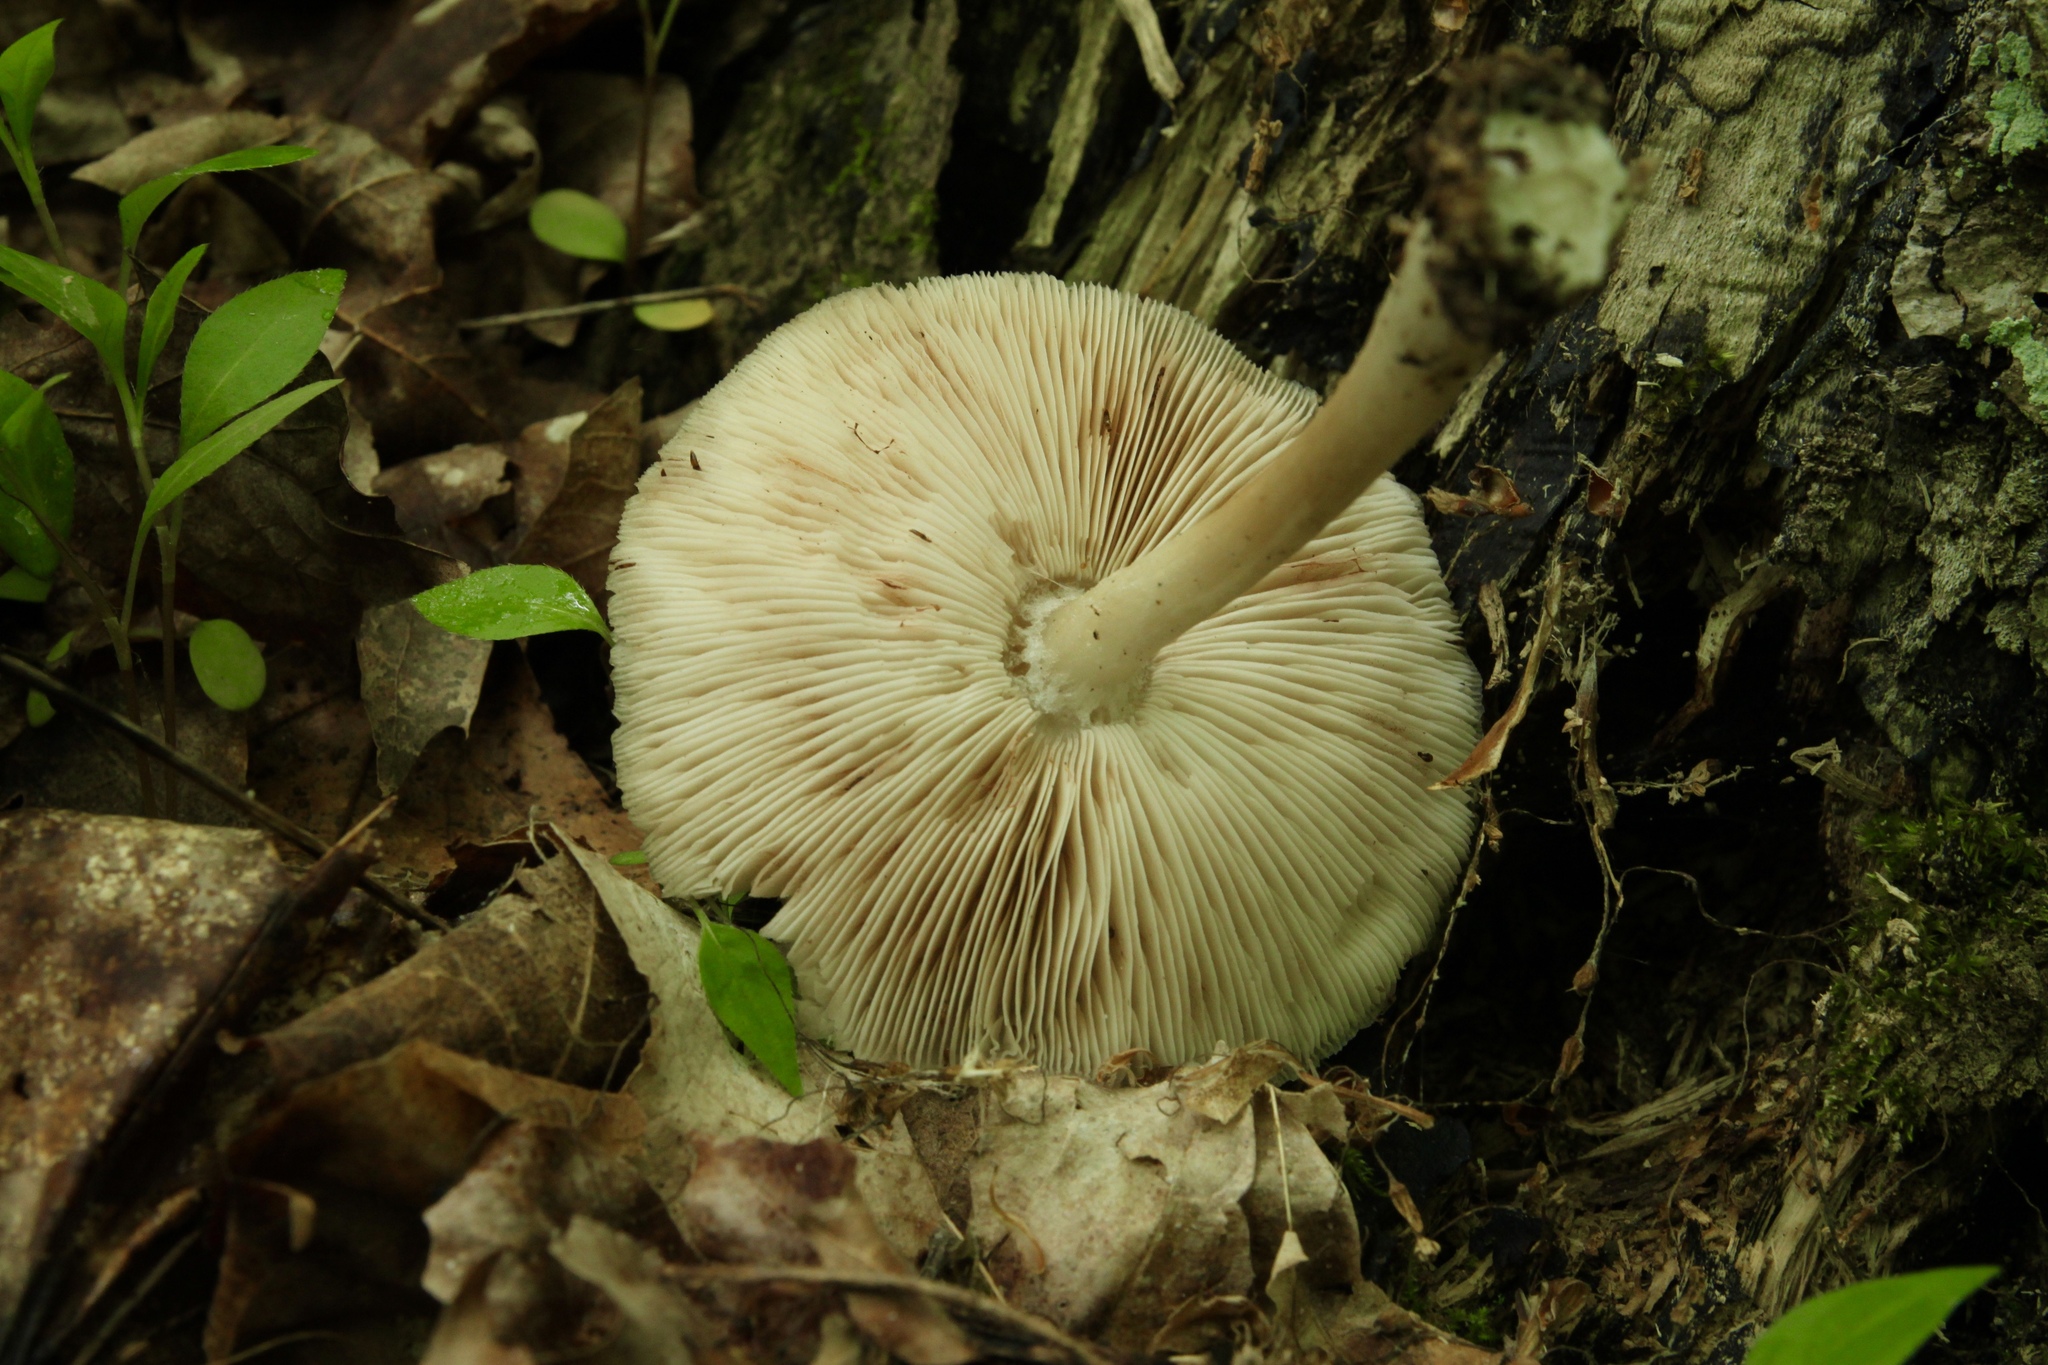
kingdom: Fungi
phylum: Basidiomycota
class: Agaricomycetes
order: Agaricales
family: Pluteaceae
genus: Pluteus
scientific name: Pluteus cervinus
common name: Deer shield
